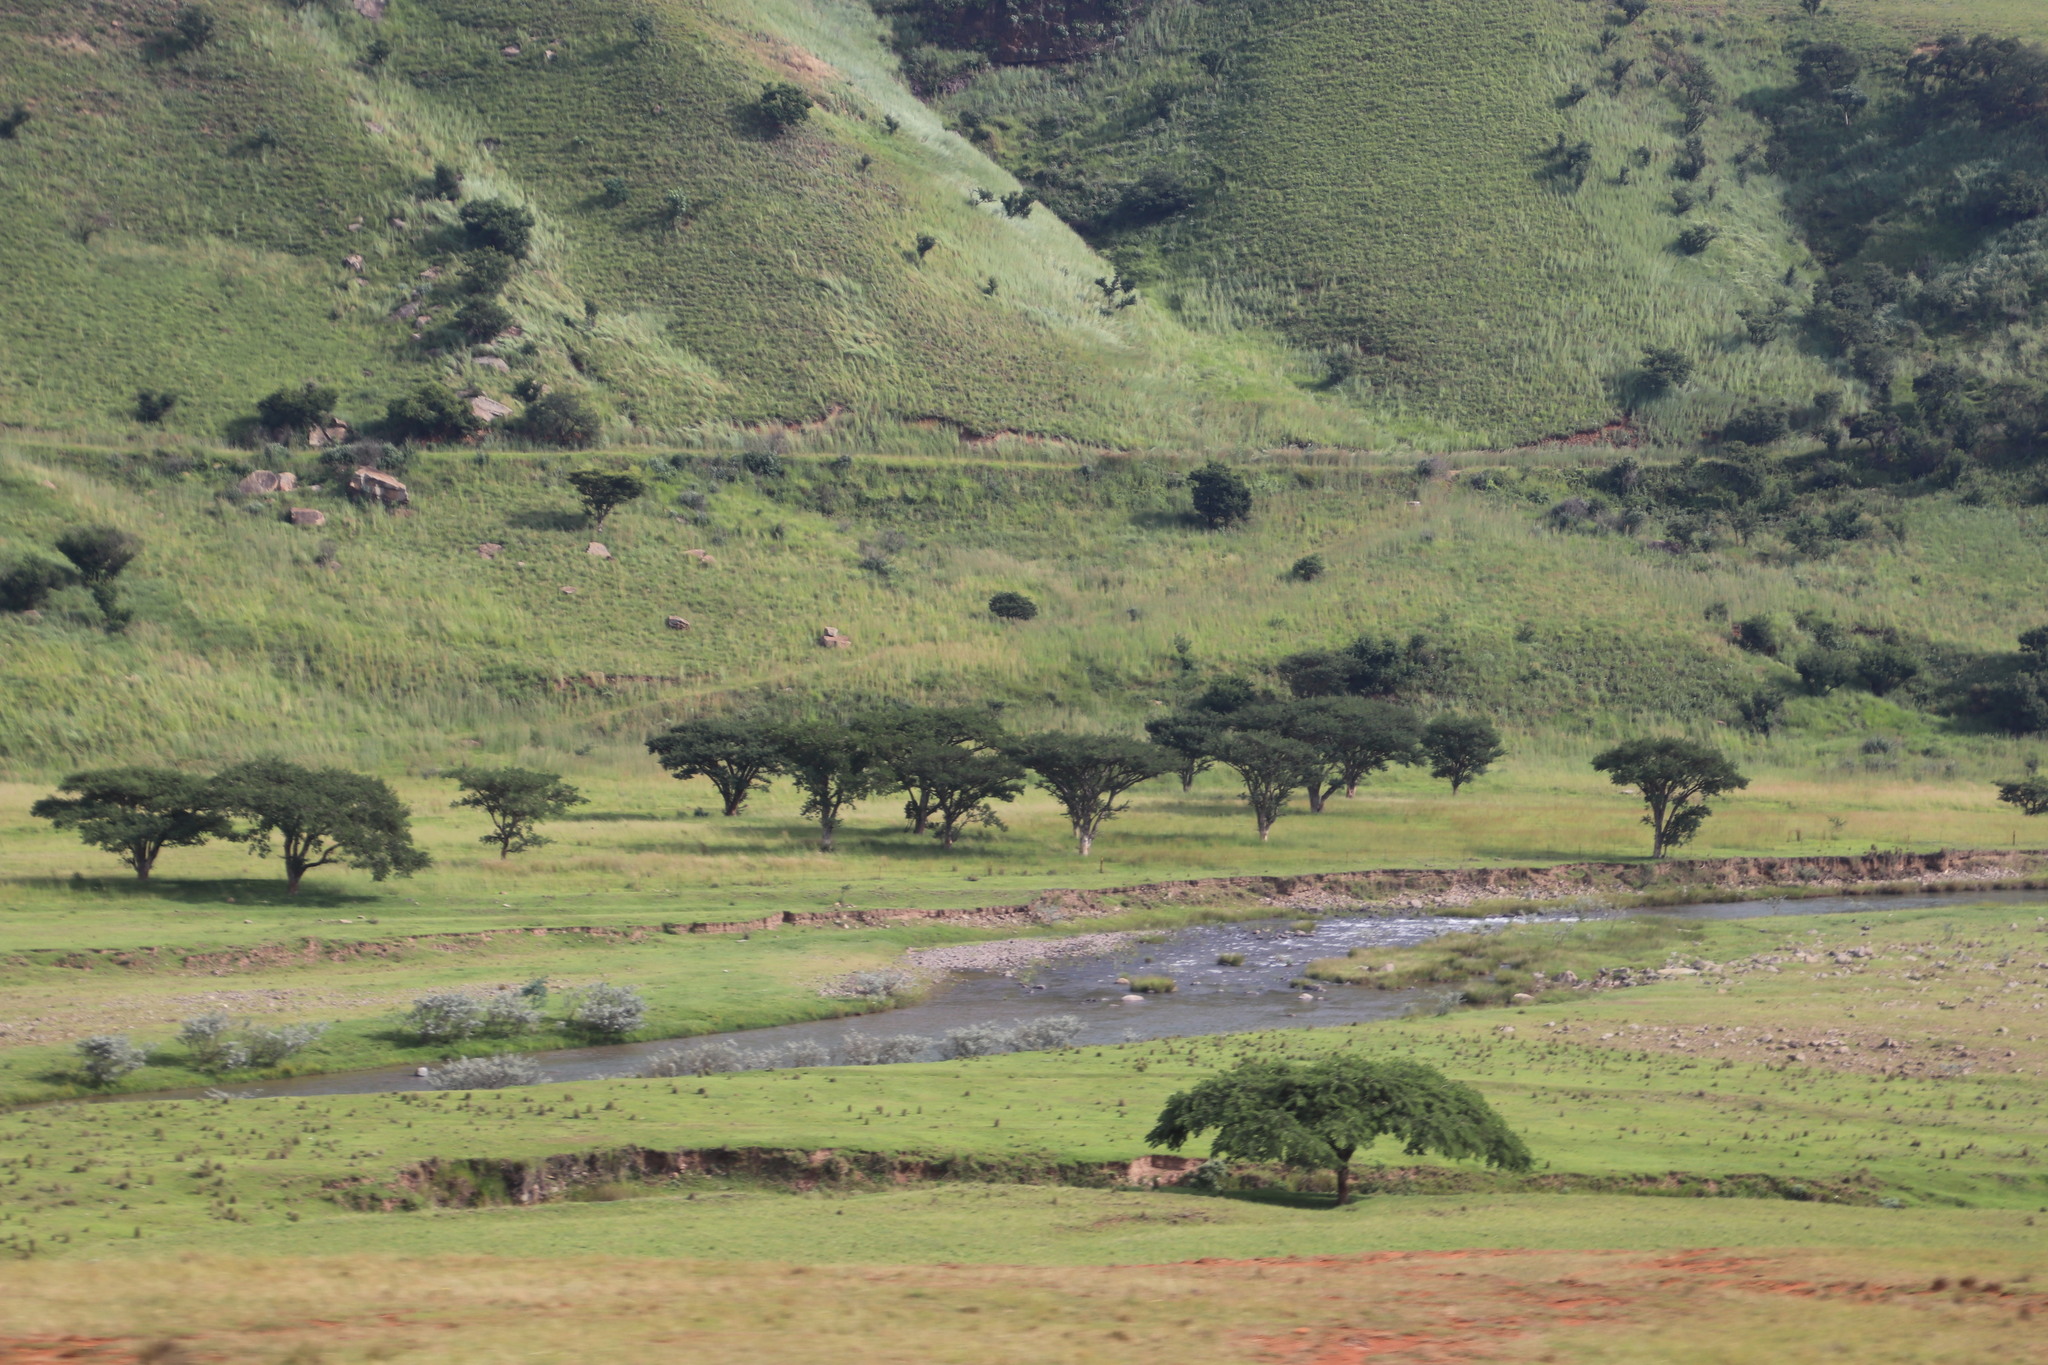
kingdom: Plantae
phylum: Tracheophyta
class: Magnoliopsida
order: Fabales
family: Fabaceae
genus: Vachellia
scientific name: Vachellia sieberiana
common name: Flat-topped thorn
